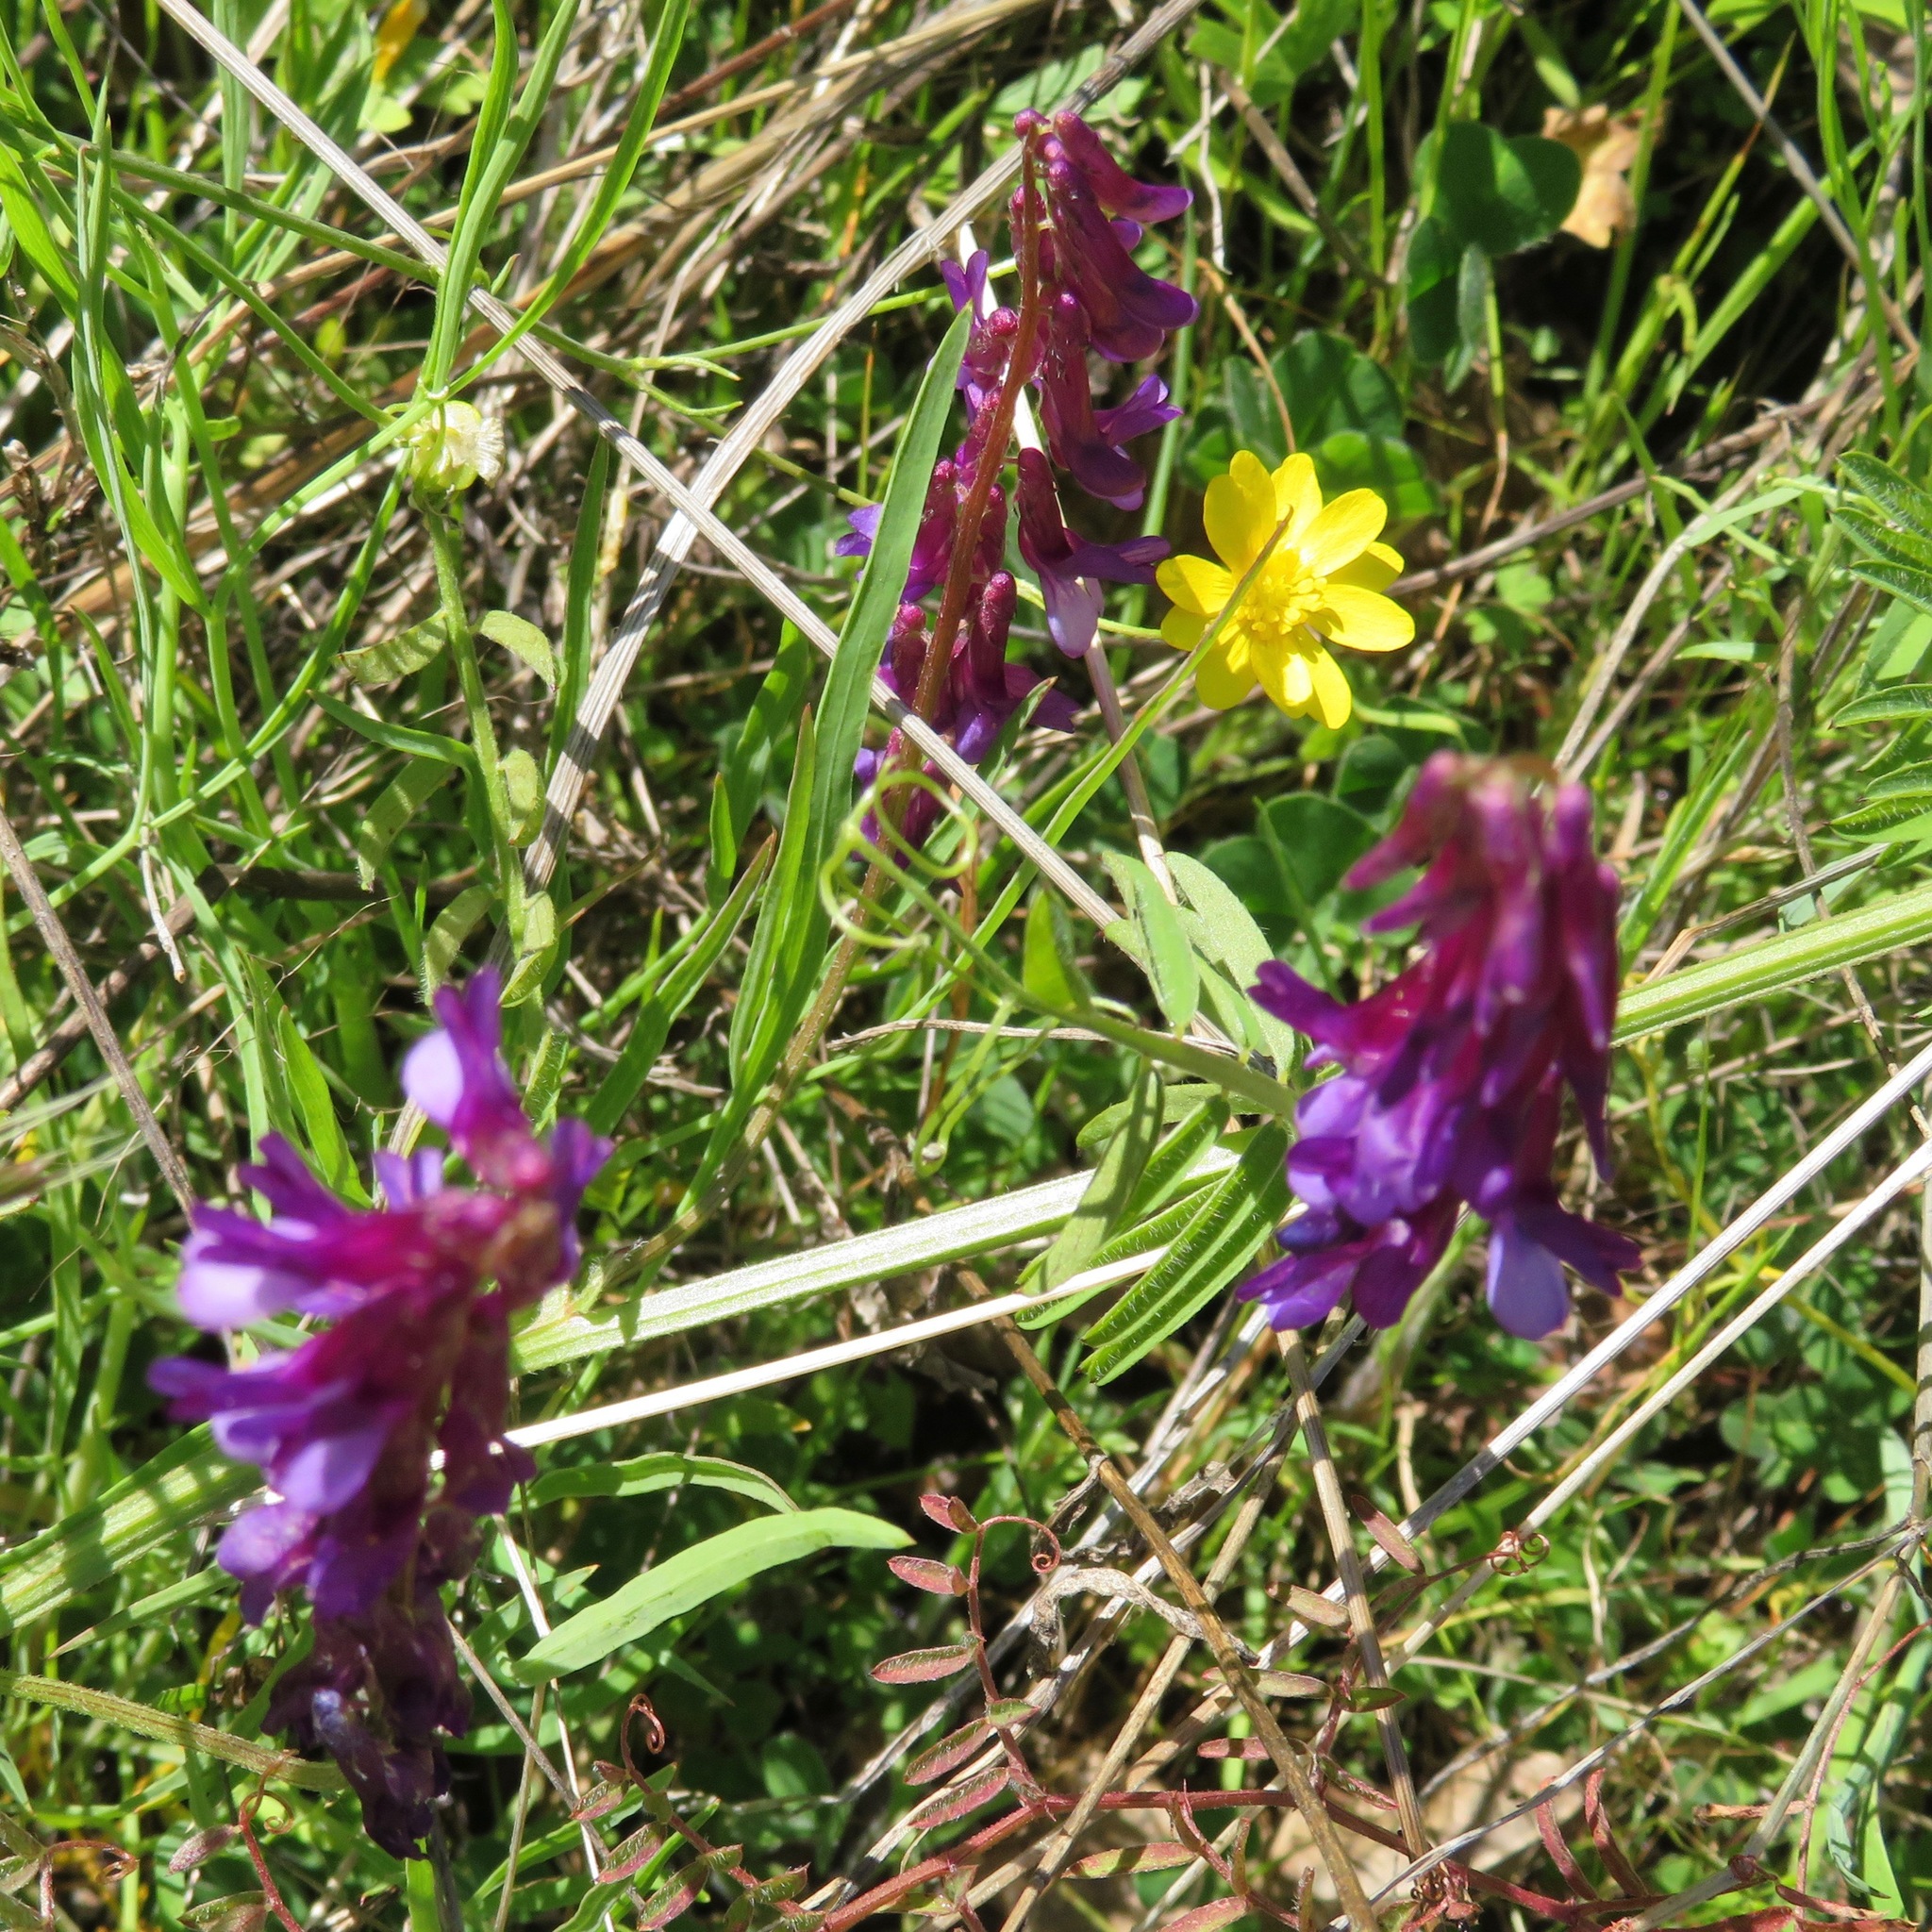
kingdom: Plantae
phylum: Tracheophyta
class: Magnoliopsida
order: Fabales
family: Fabaceae
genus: Vicia
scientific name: Vicia villosa
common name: Fodder vetch
